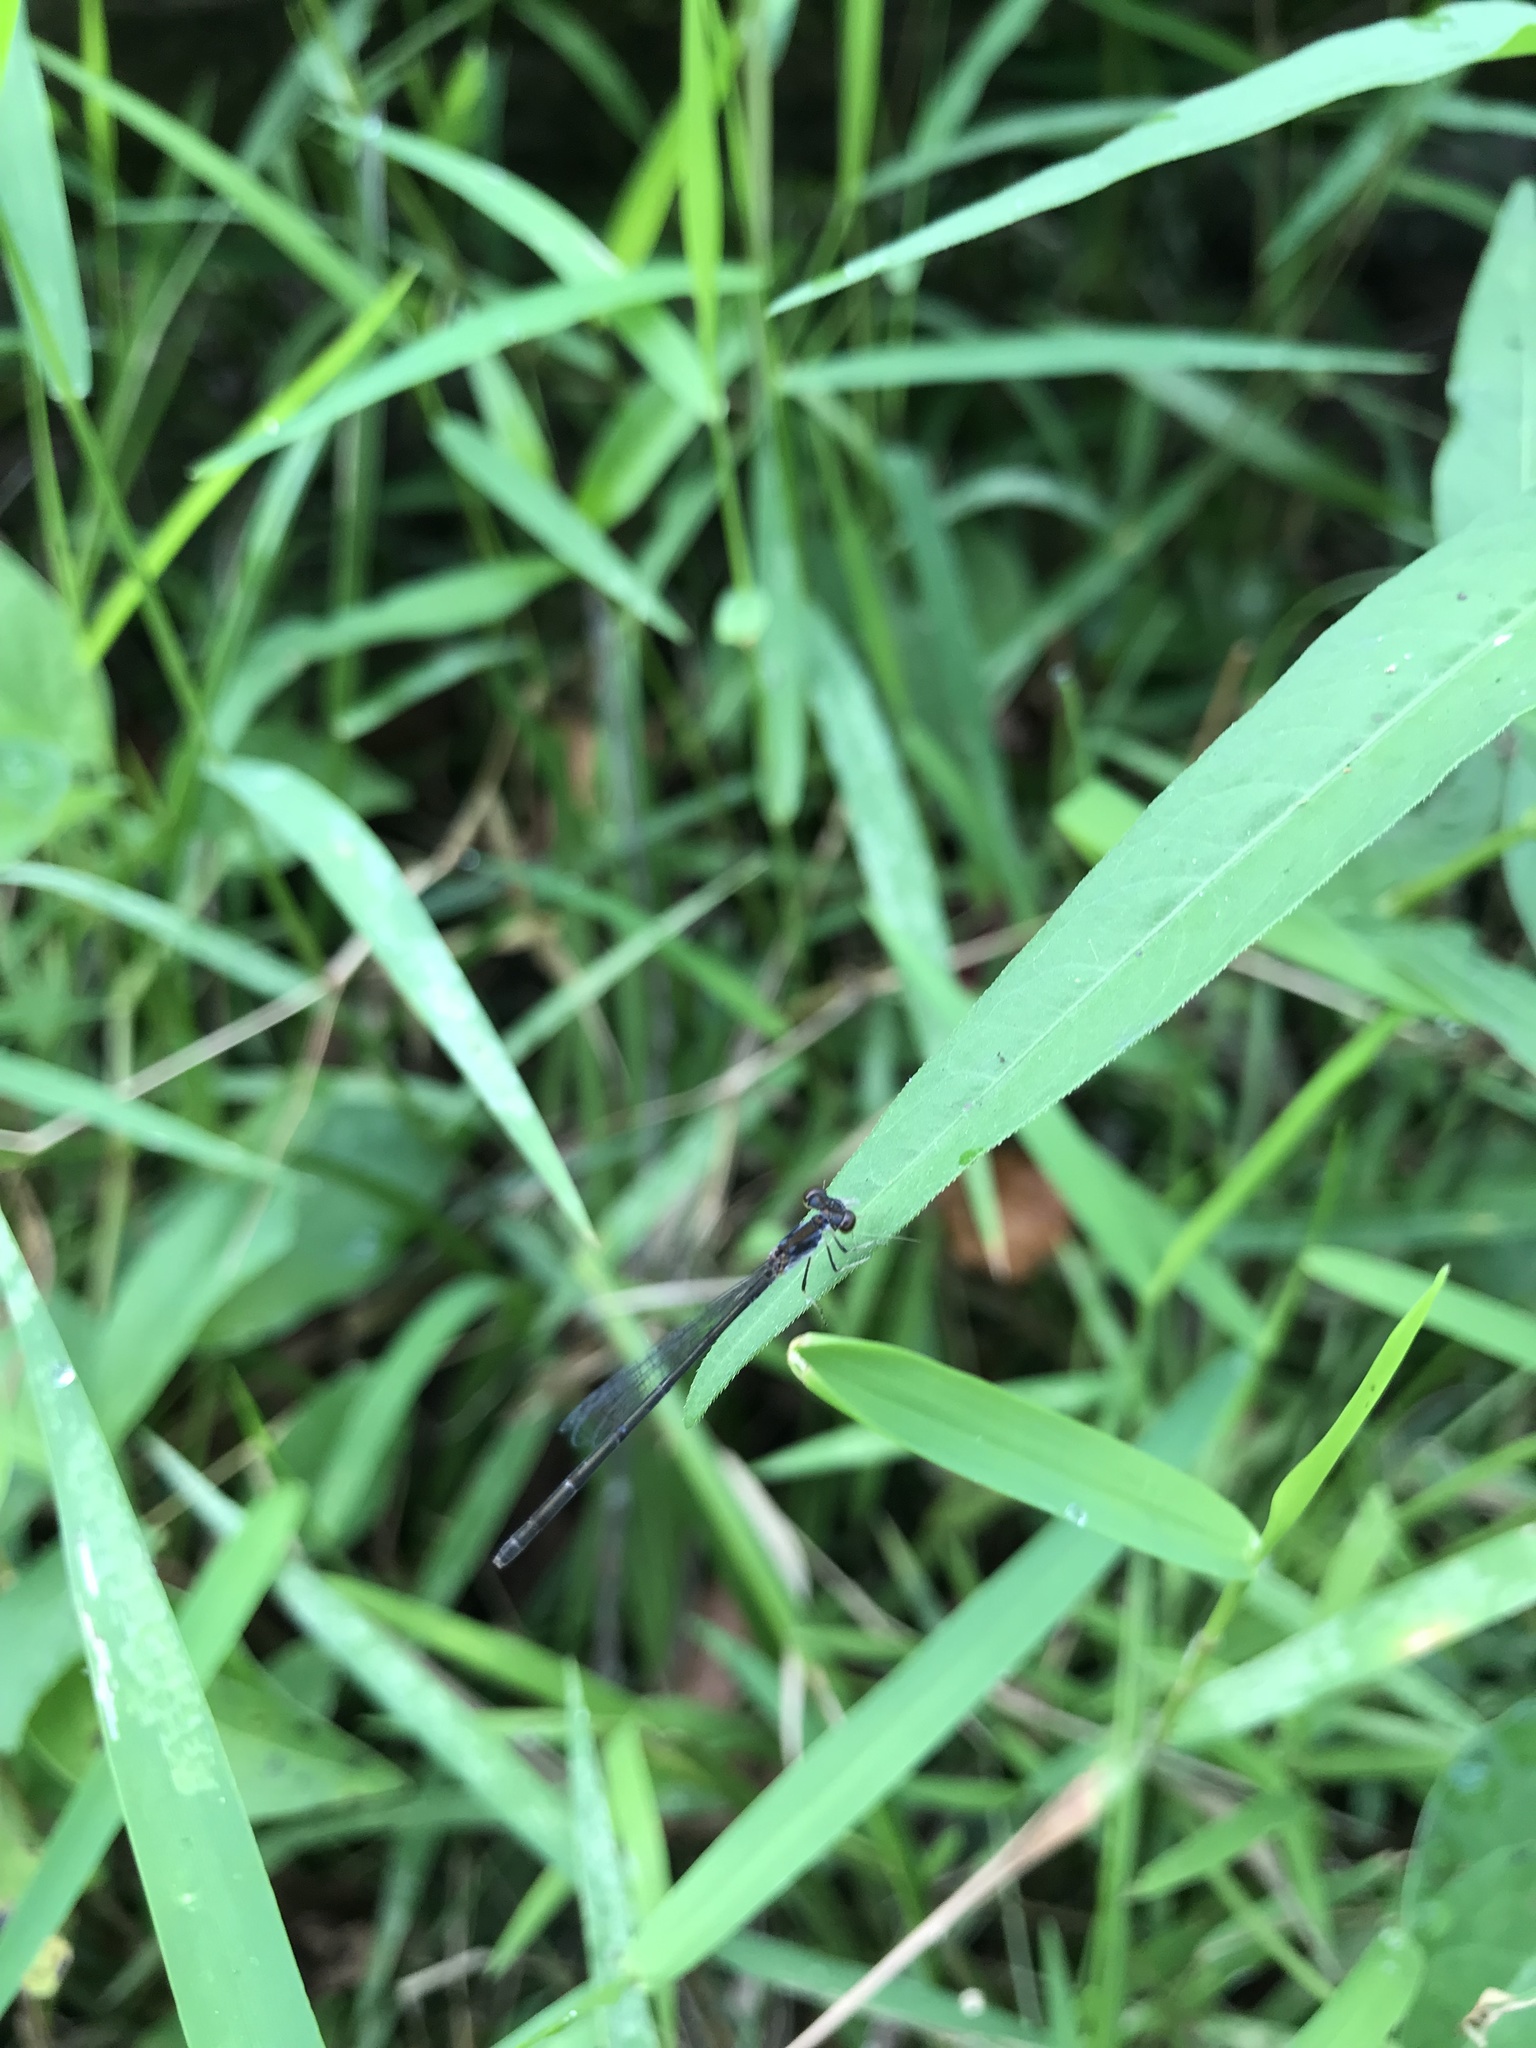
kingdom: Animalia
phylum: Arthropoda
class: Insecta
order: Odonata
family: Coenagrionidae
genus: Ischnura
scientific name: Ischnura posita
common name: Fragile forktail
